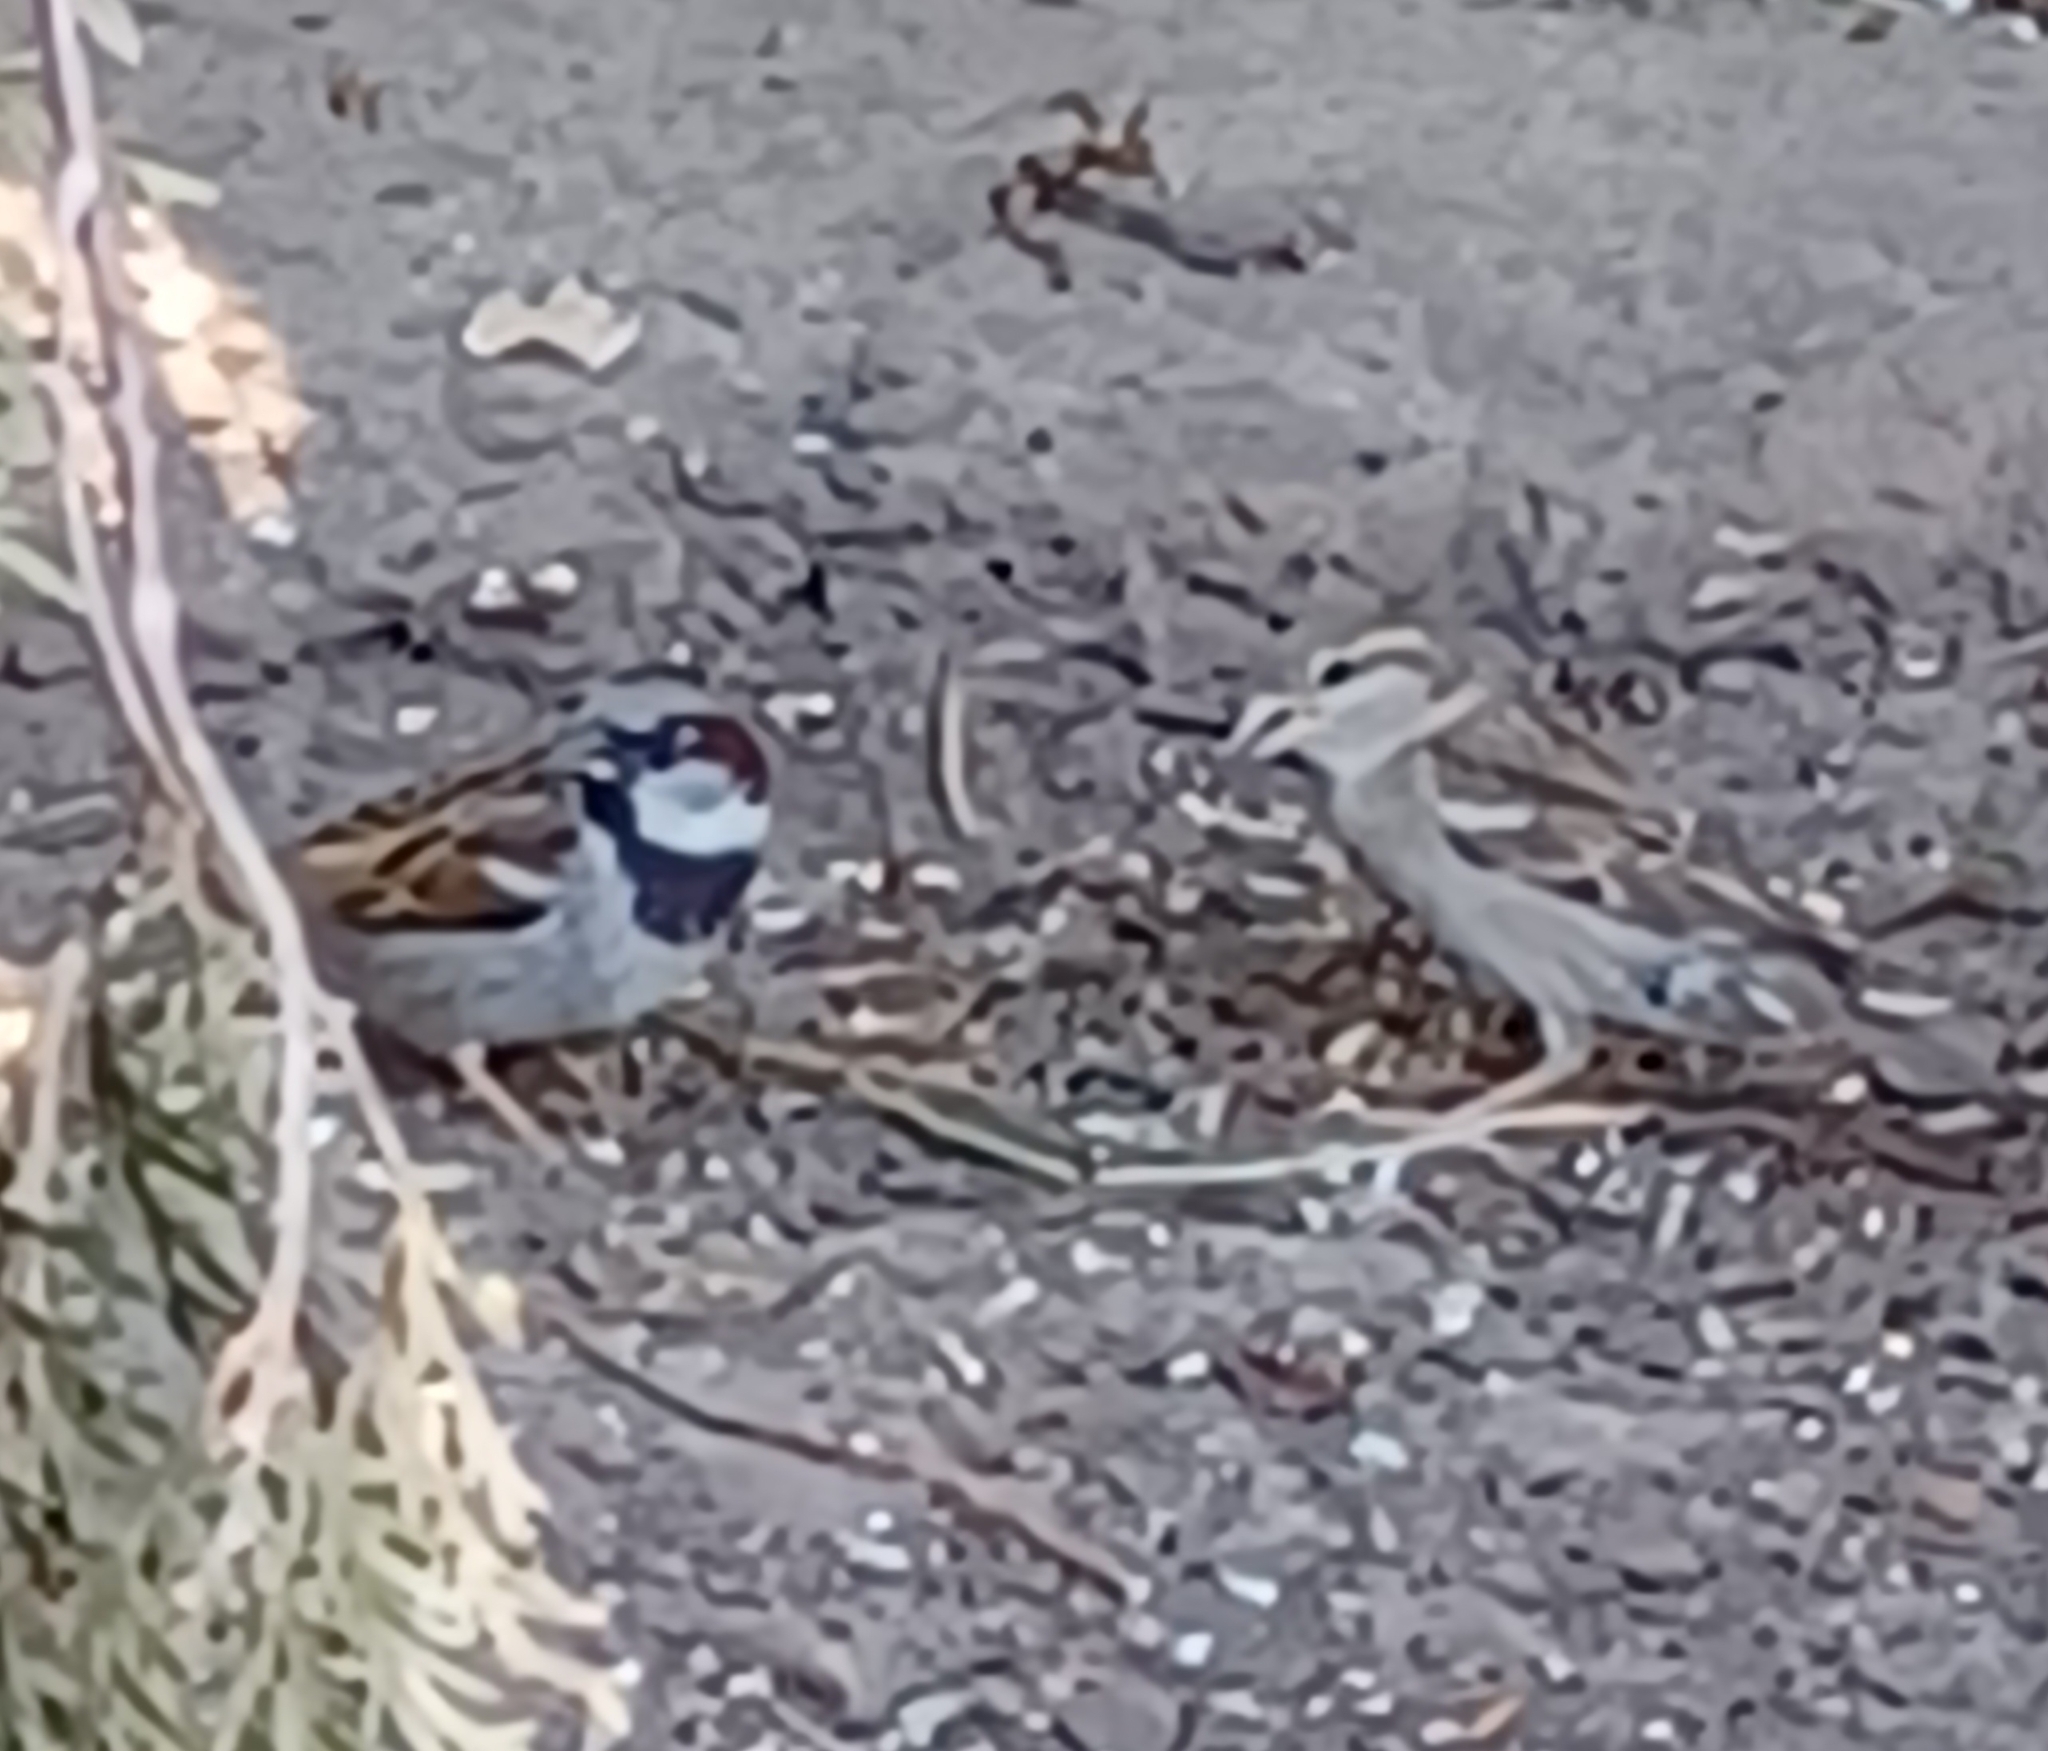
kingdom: Animalia
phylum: Chordata
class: Aves
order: Passeriformes
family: Passeridae
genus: Passer
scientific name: Passer domesticus
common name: House sparrow
